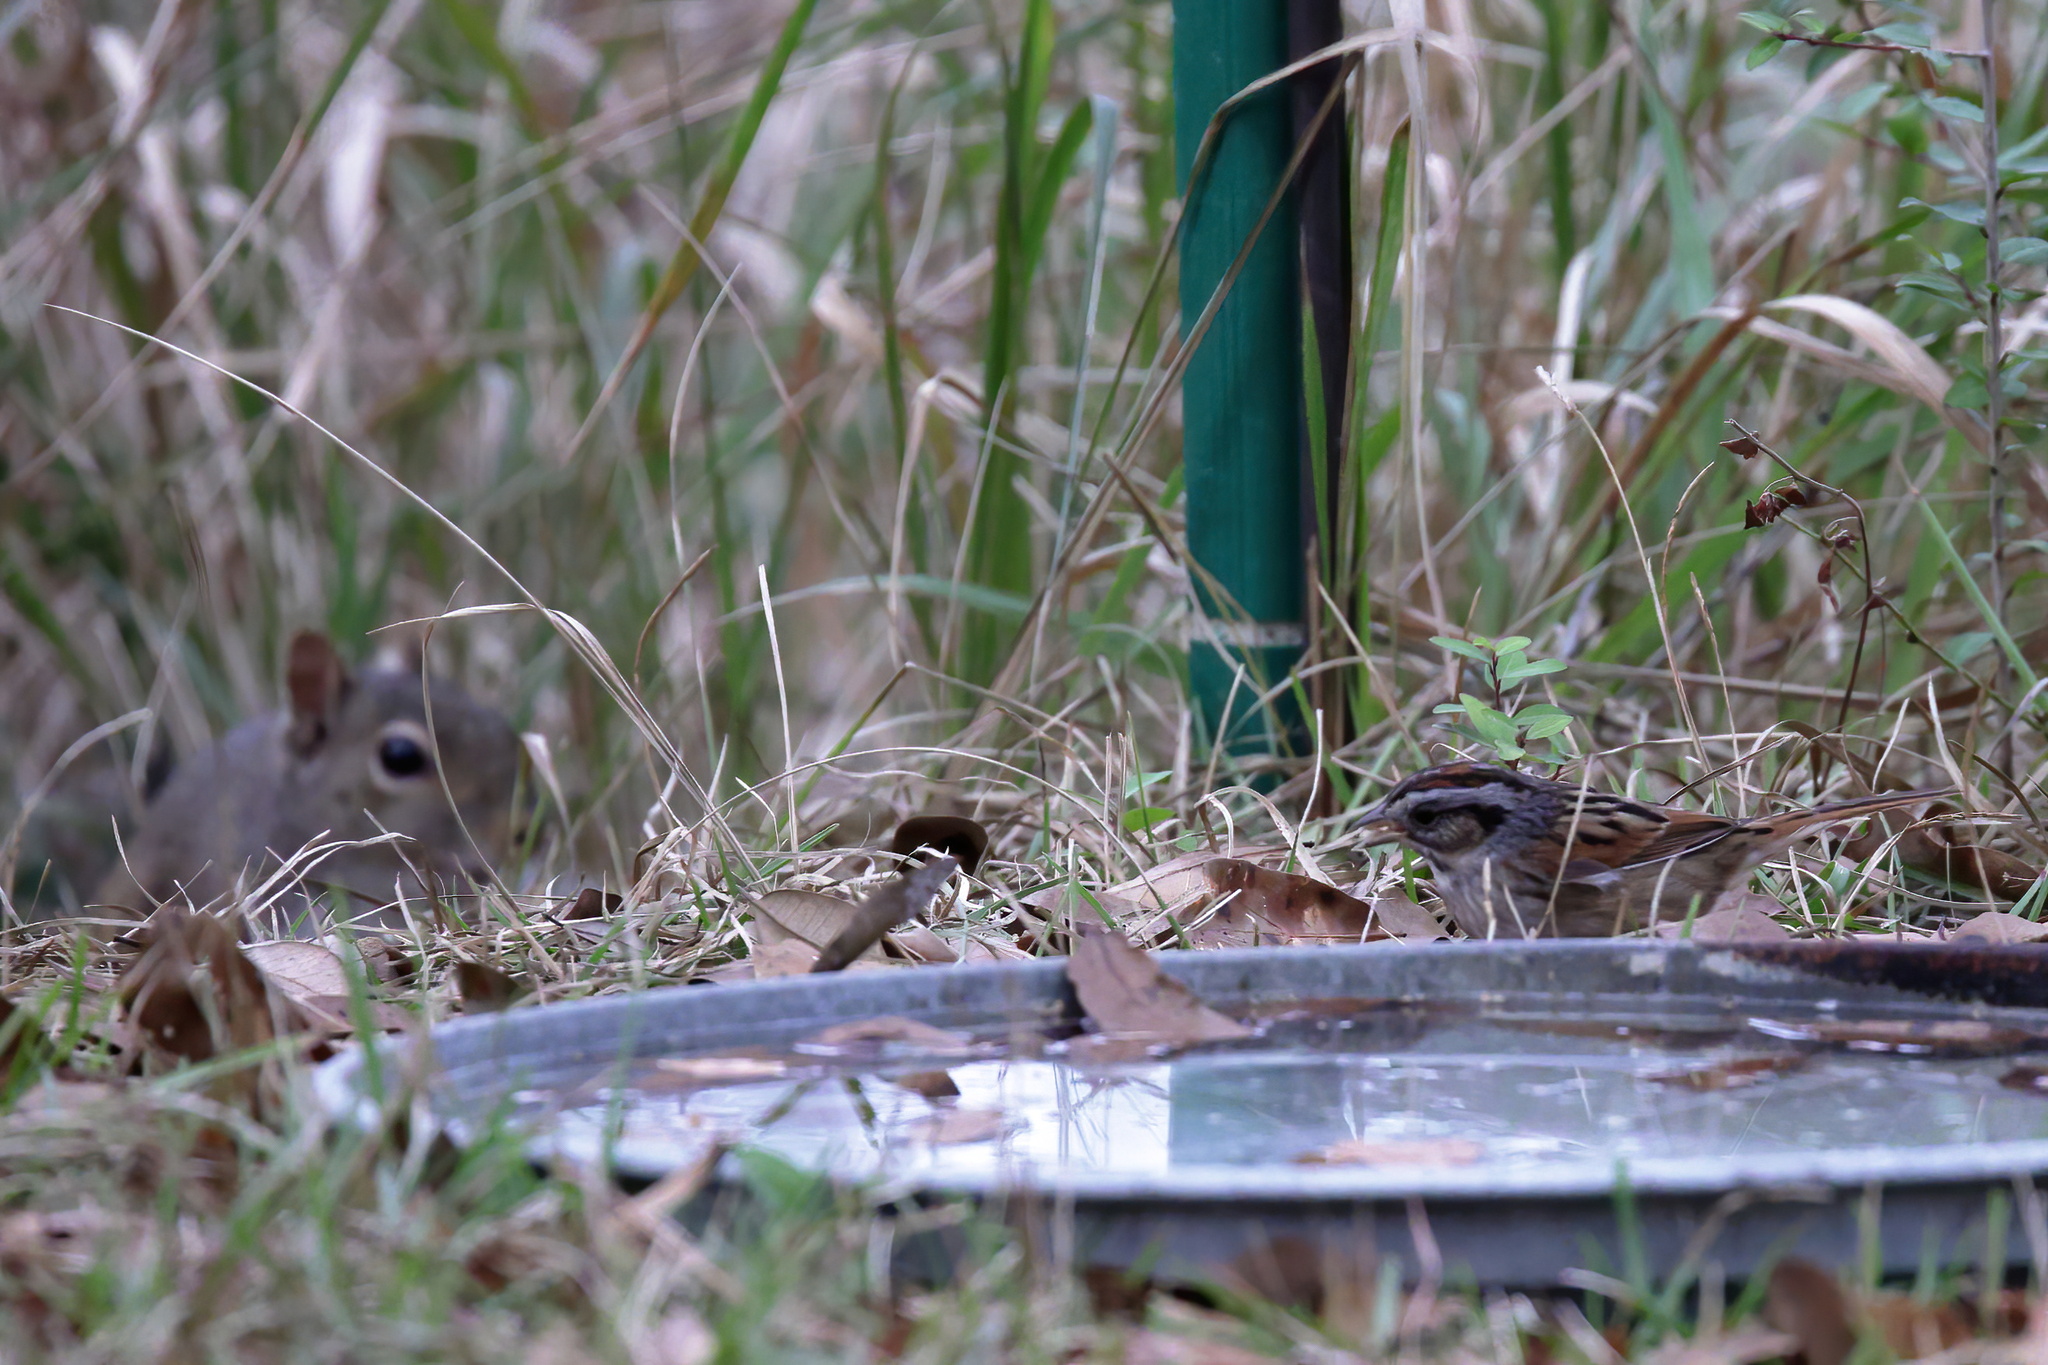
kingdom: Animalia
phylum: Chordata
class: Aves
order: Passeriformes
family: Passerellidae
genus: Melospiza
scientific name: Melospiza georgiana
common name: Swamp sparrow
